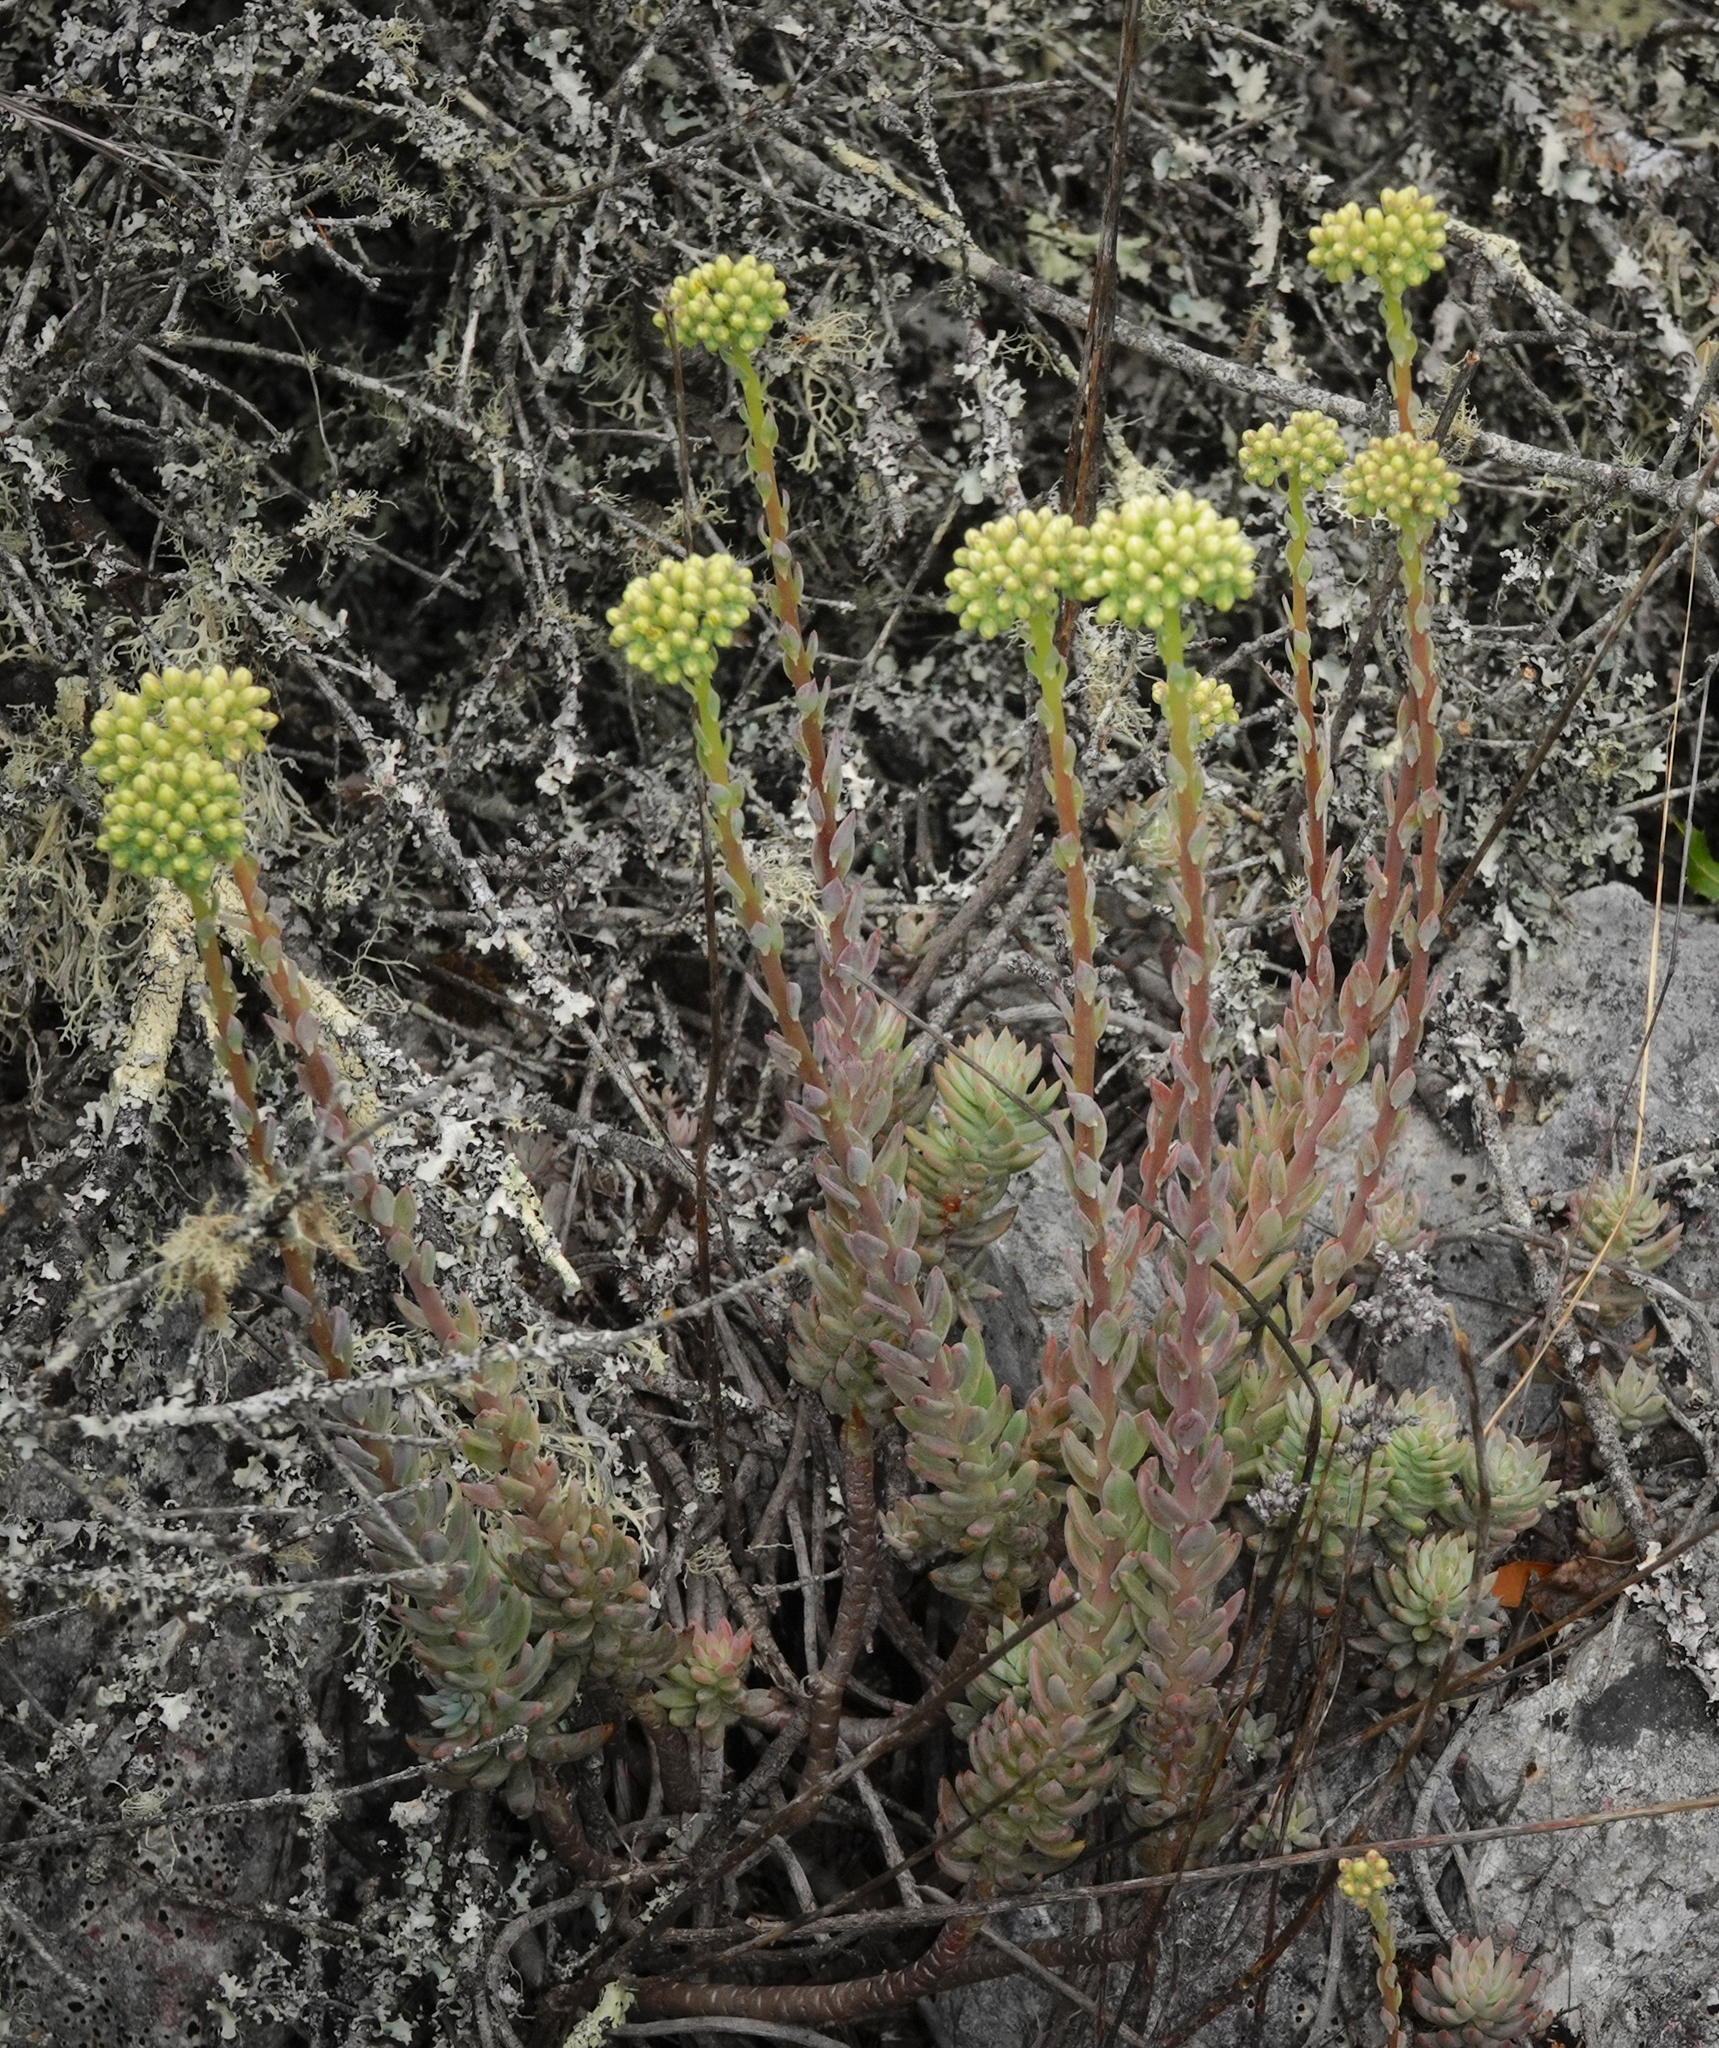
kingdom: Plantae
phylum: Tracheophyta
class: Magnoliopsida
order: Saxifragales
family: Crassulaceae
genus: Petrosedum
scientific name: Petrosedum sediforme
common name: Pale stonecrop
